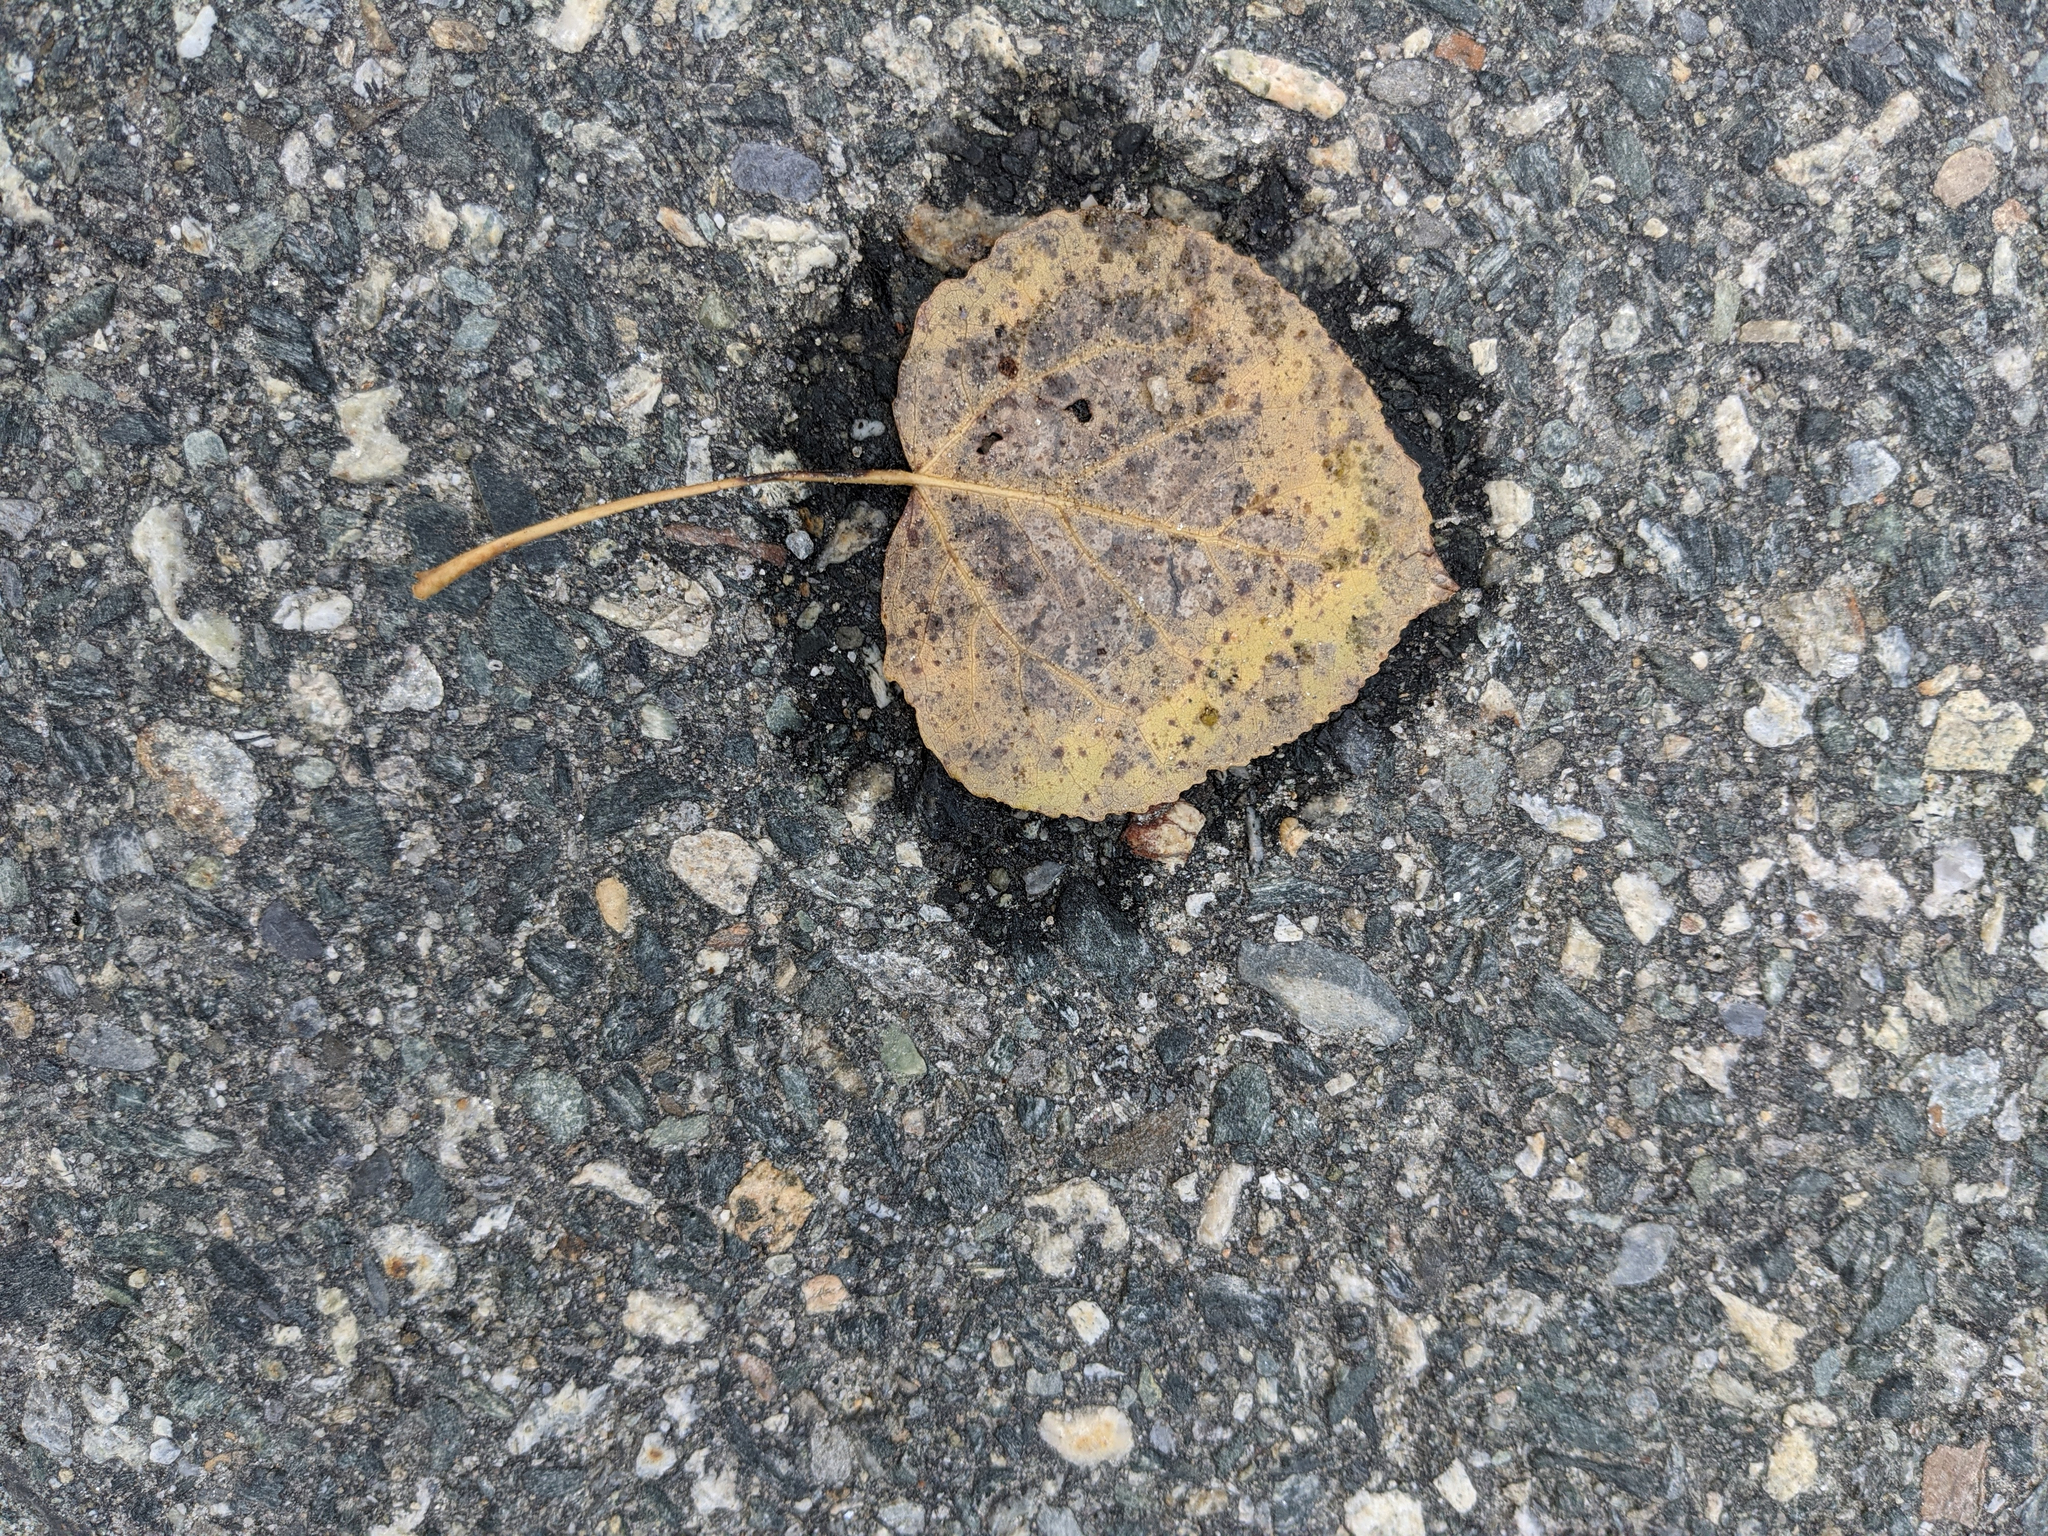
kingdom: Plantae
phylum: Tracheophyta
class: Magnoliopsida
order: Malpighiales
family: Salicaceae
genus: Populus
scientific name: Populus tremuloides
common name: Quaking aspen
